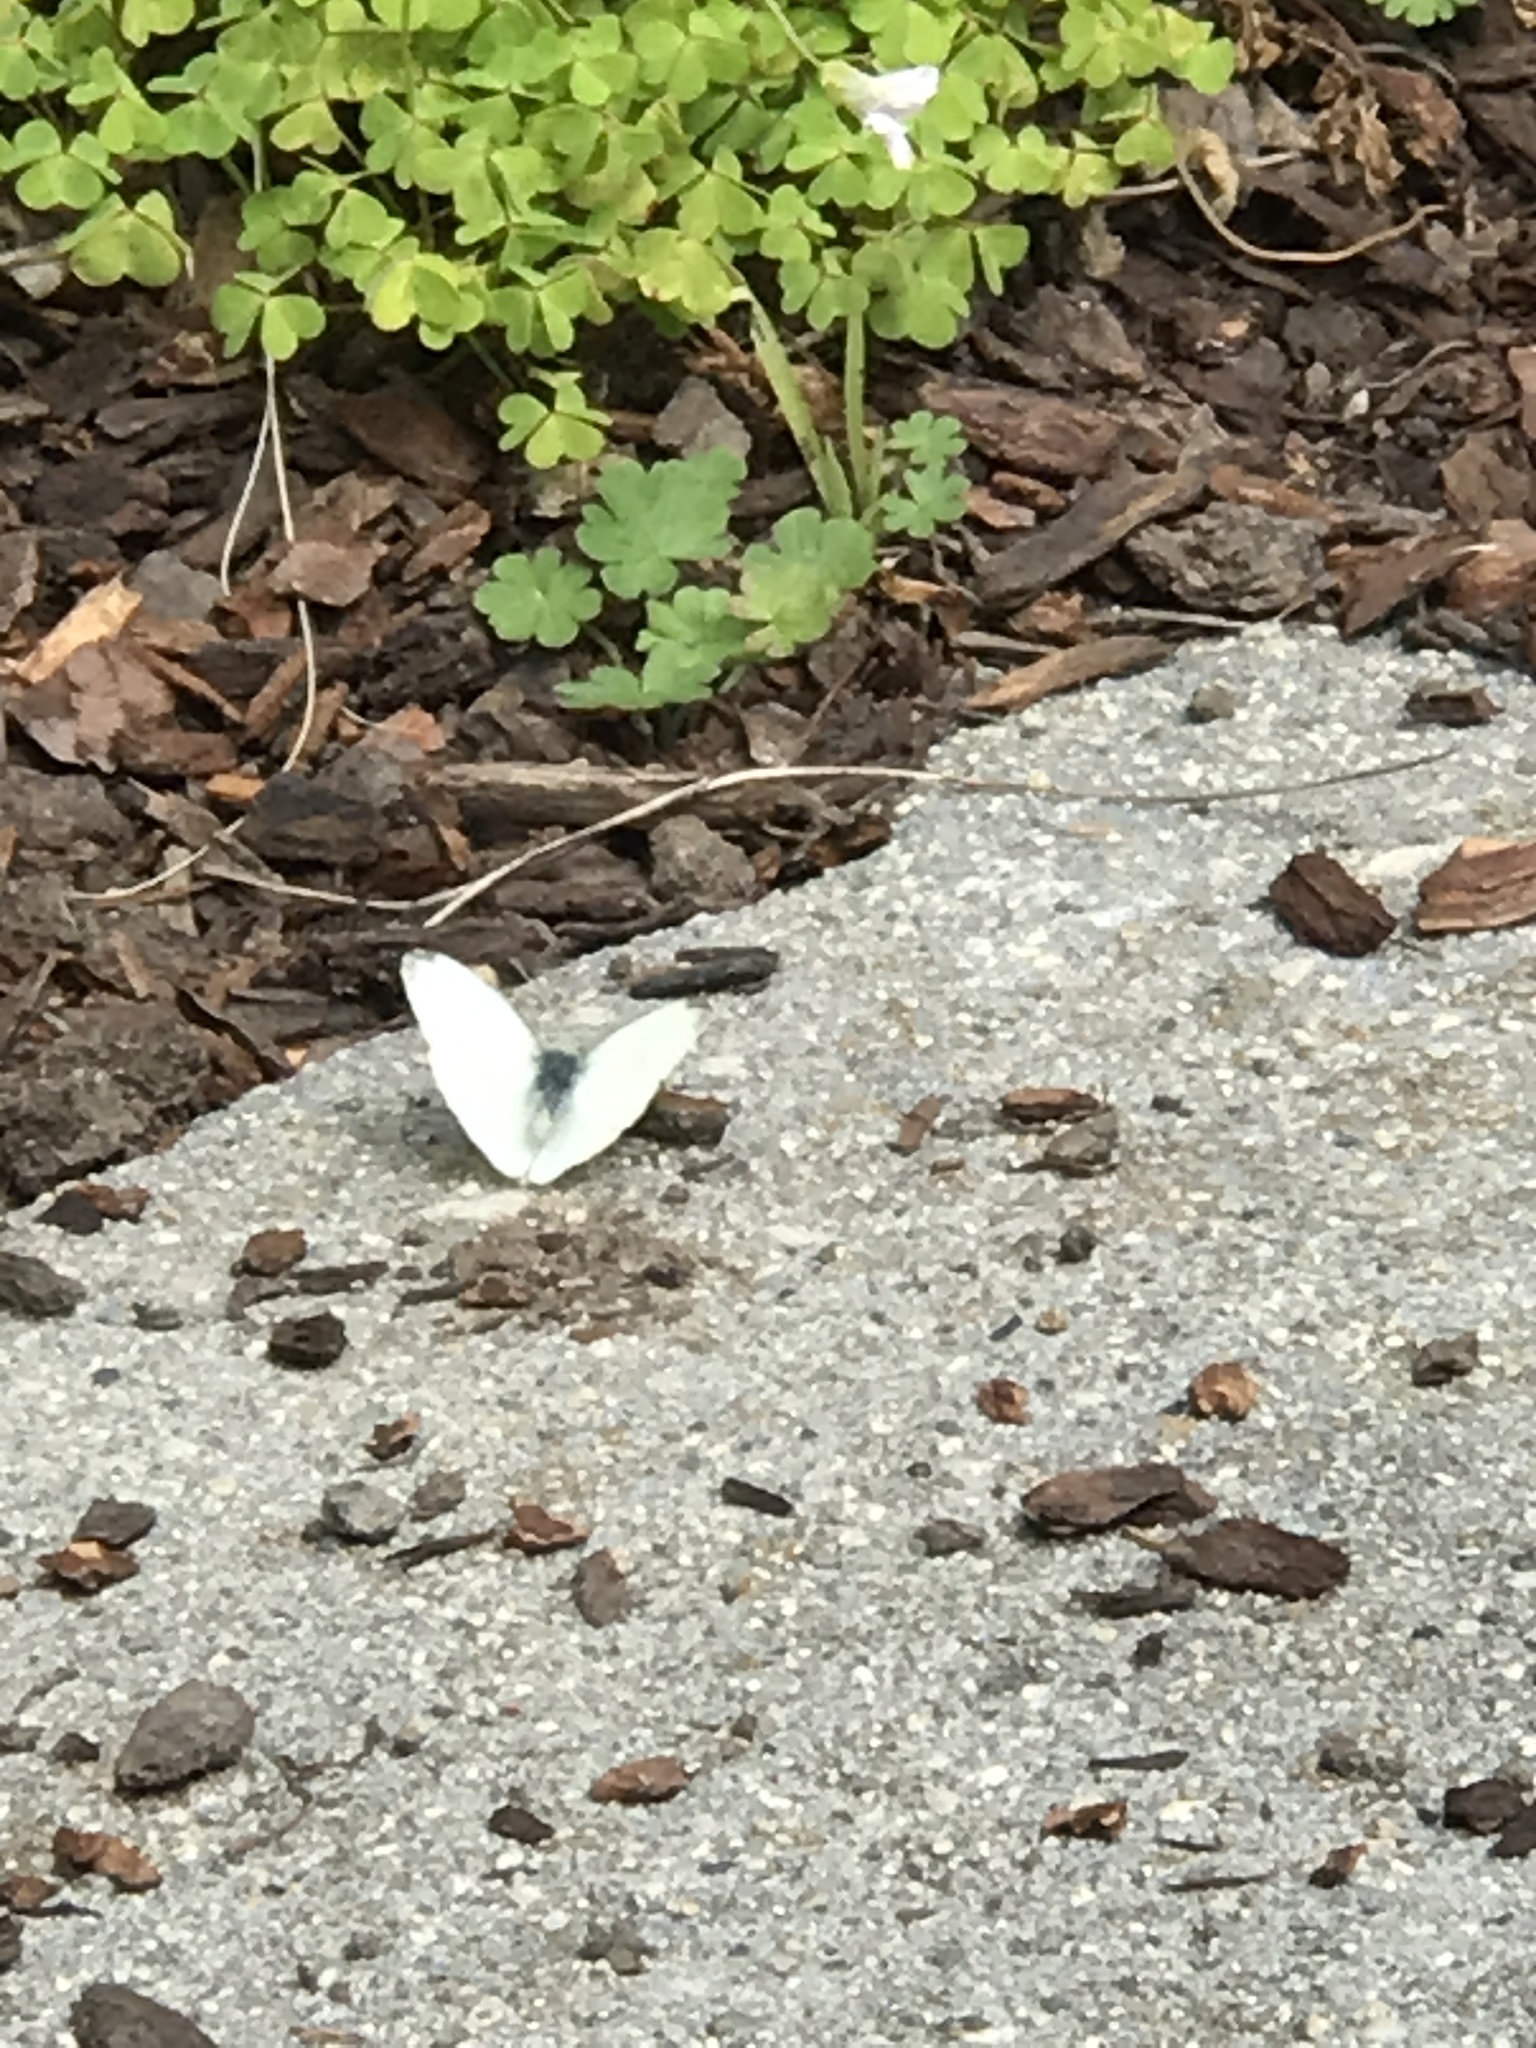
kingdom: Animalia
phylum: Arthropoda
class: Insecta
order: Lepidoptera
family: Pieridae
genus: Pieris
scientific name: Pieris rapae
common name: Small white
